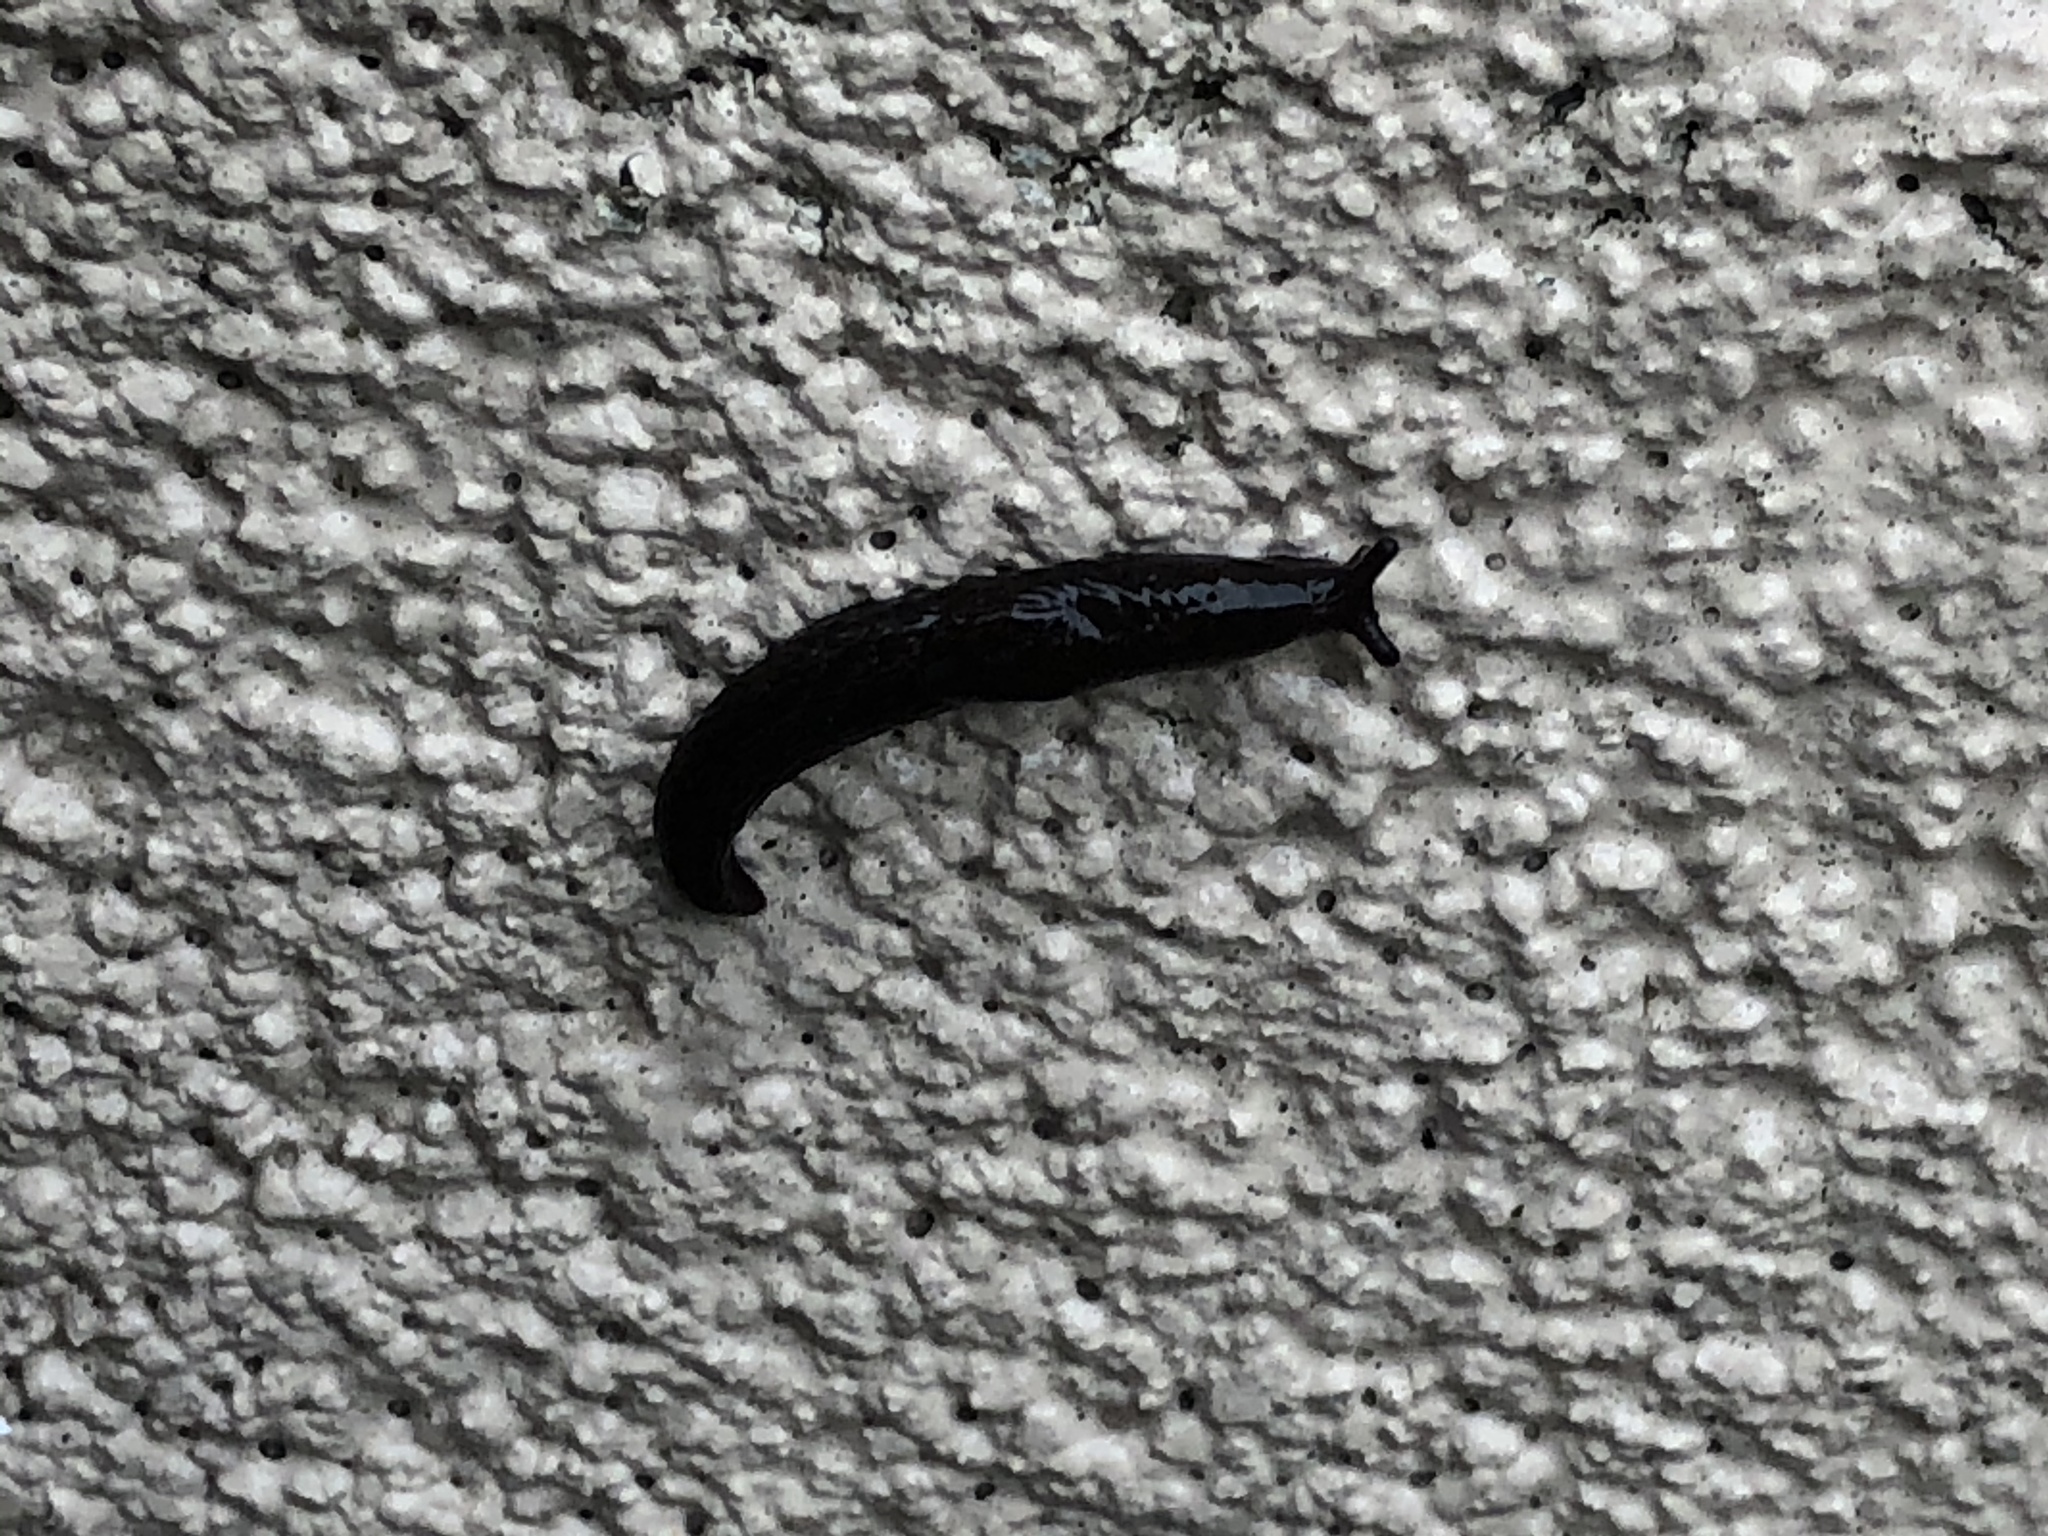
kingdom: Animalia
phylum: Mollusca
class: Gastropoda
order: Stylommatophora
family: Agriolimacidae
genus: Deroceras
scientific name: Deroceras laeve
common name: Marsh slug
